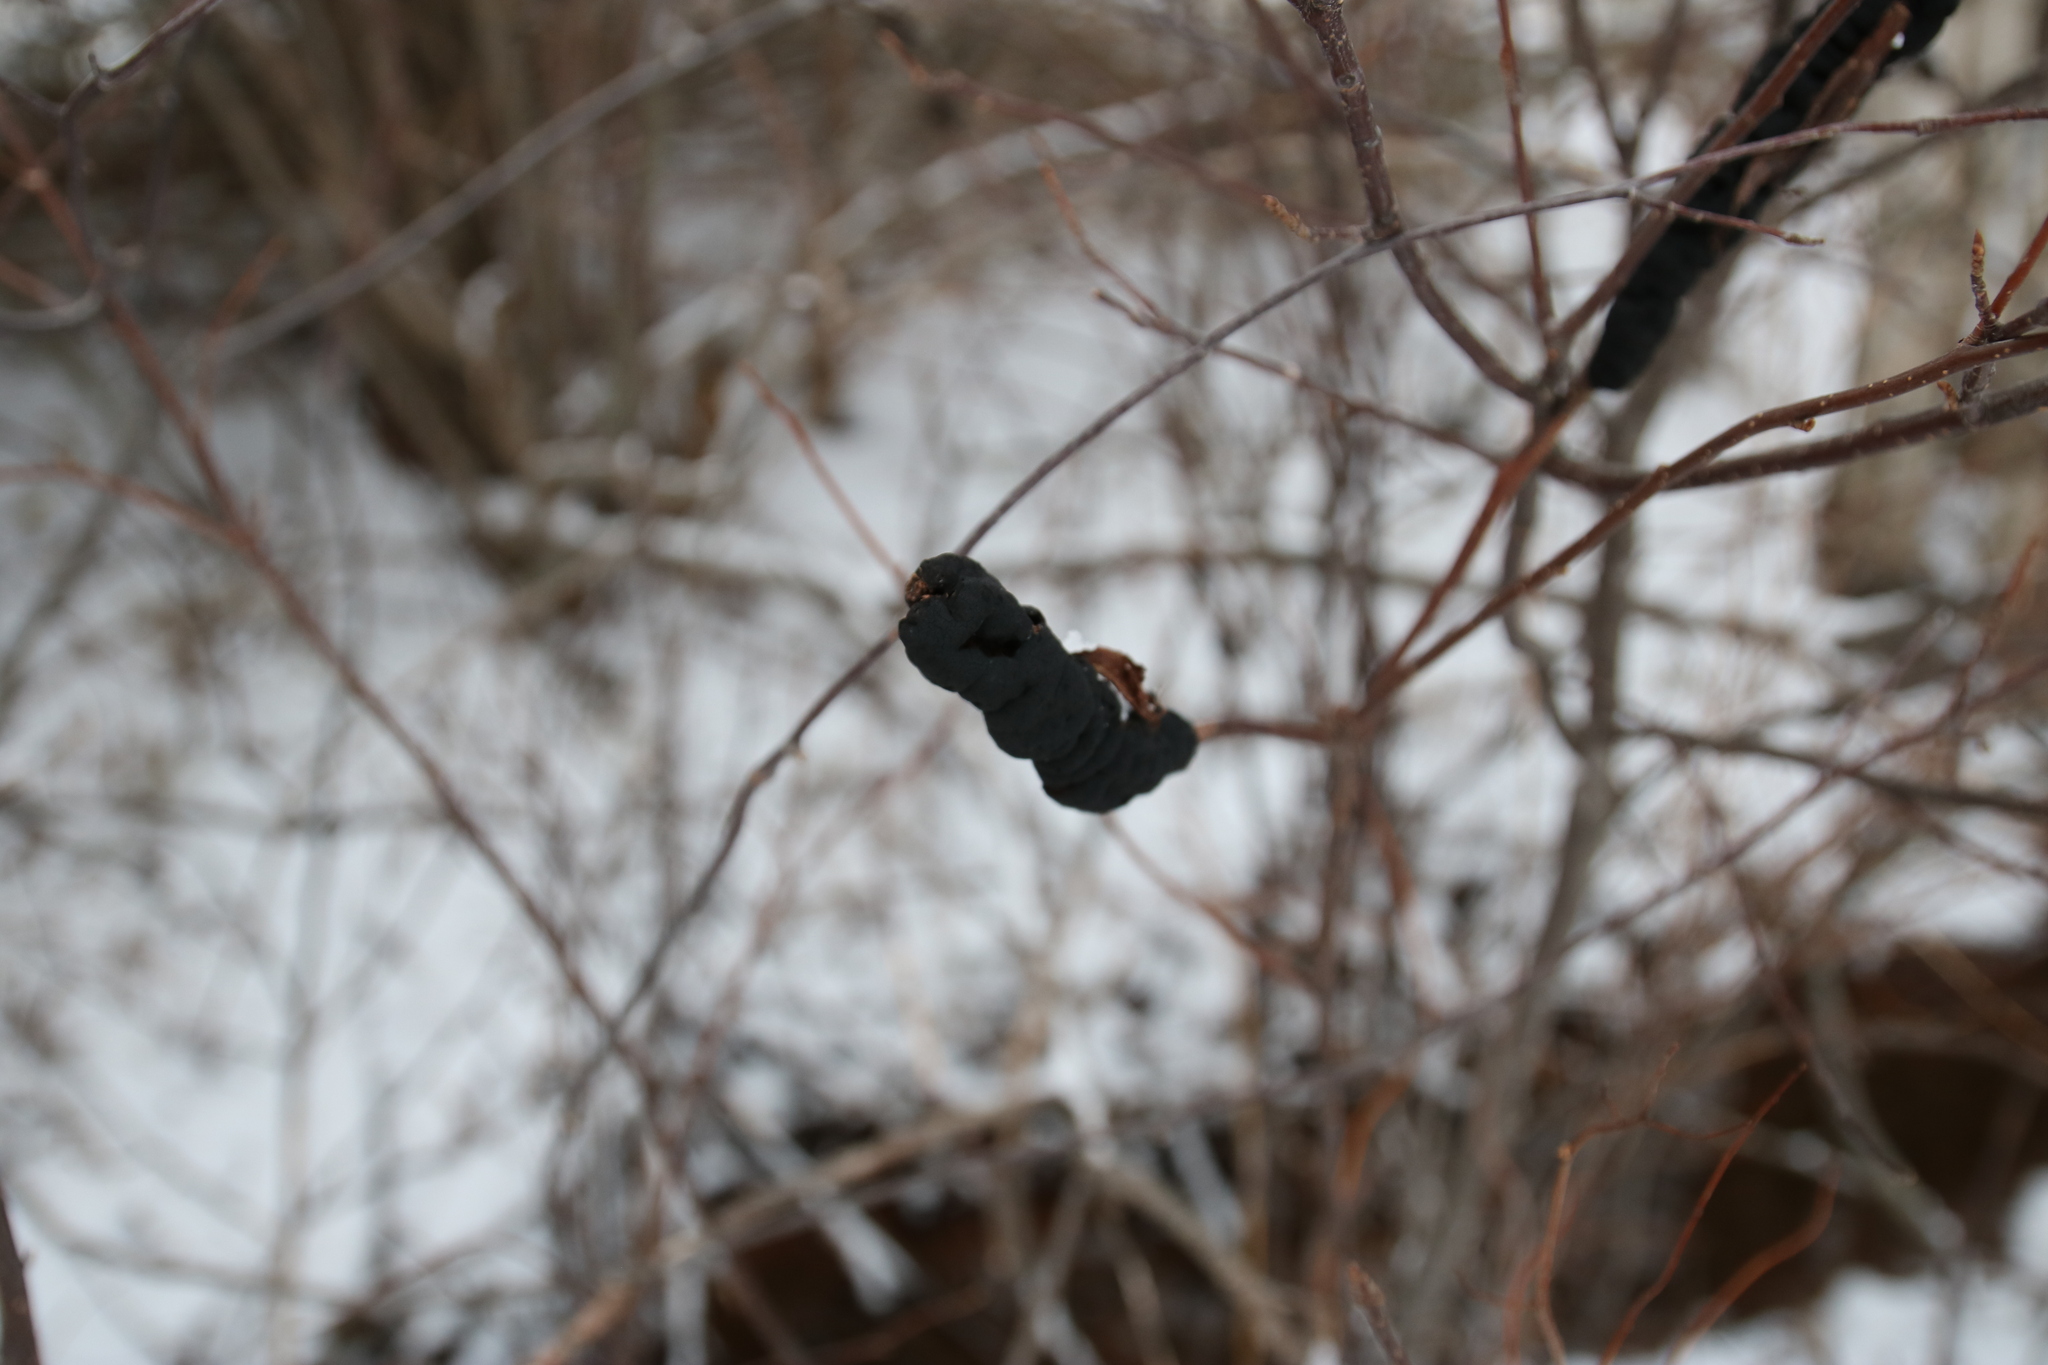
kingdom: Fungi
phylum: Ascomycota
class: Dothideomycetes
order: Venturiales
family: Venturiaceae
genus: Apiosporina
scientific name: Apiosporina morbosa
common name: Black knot
